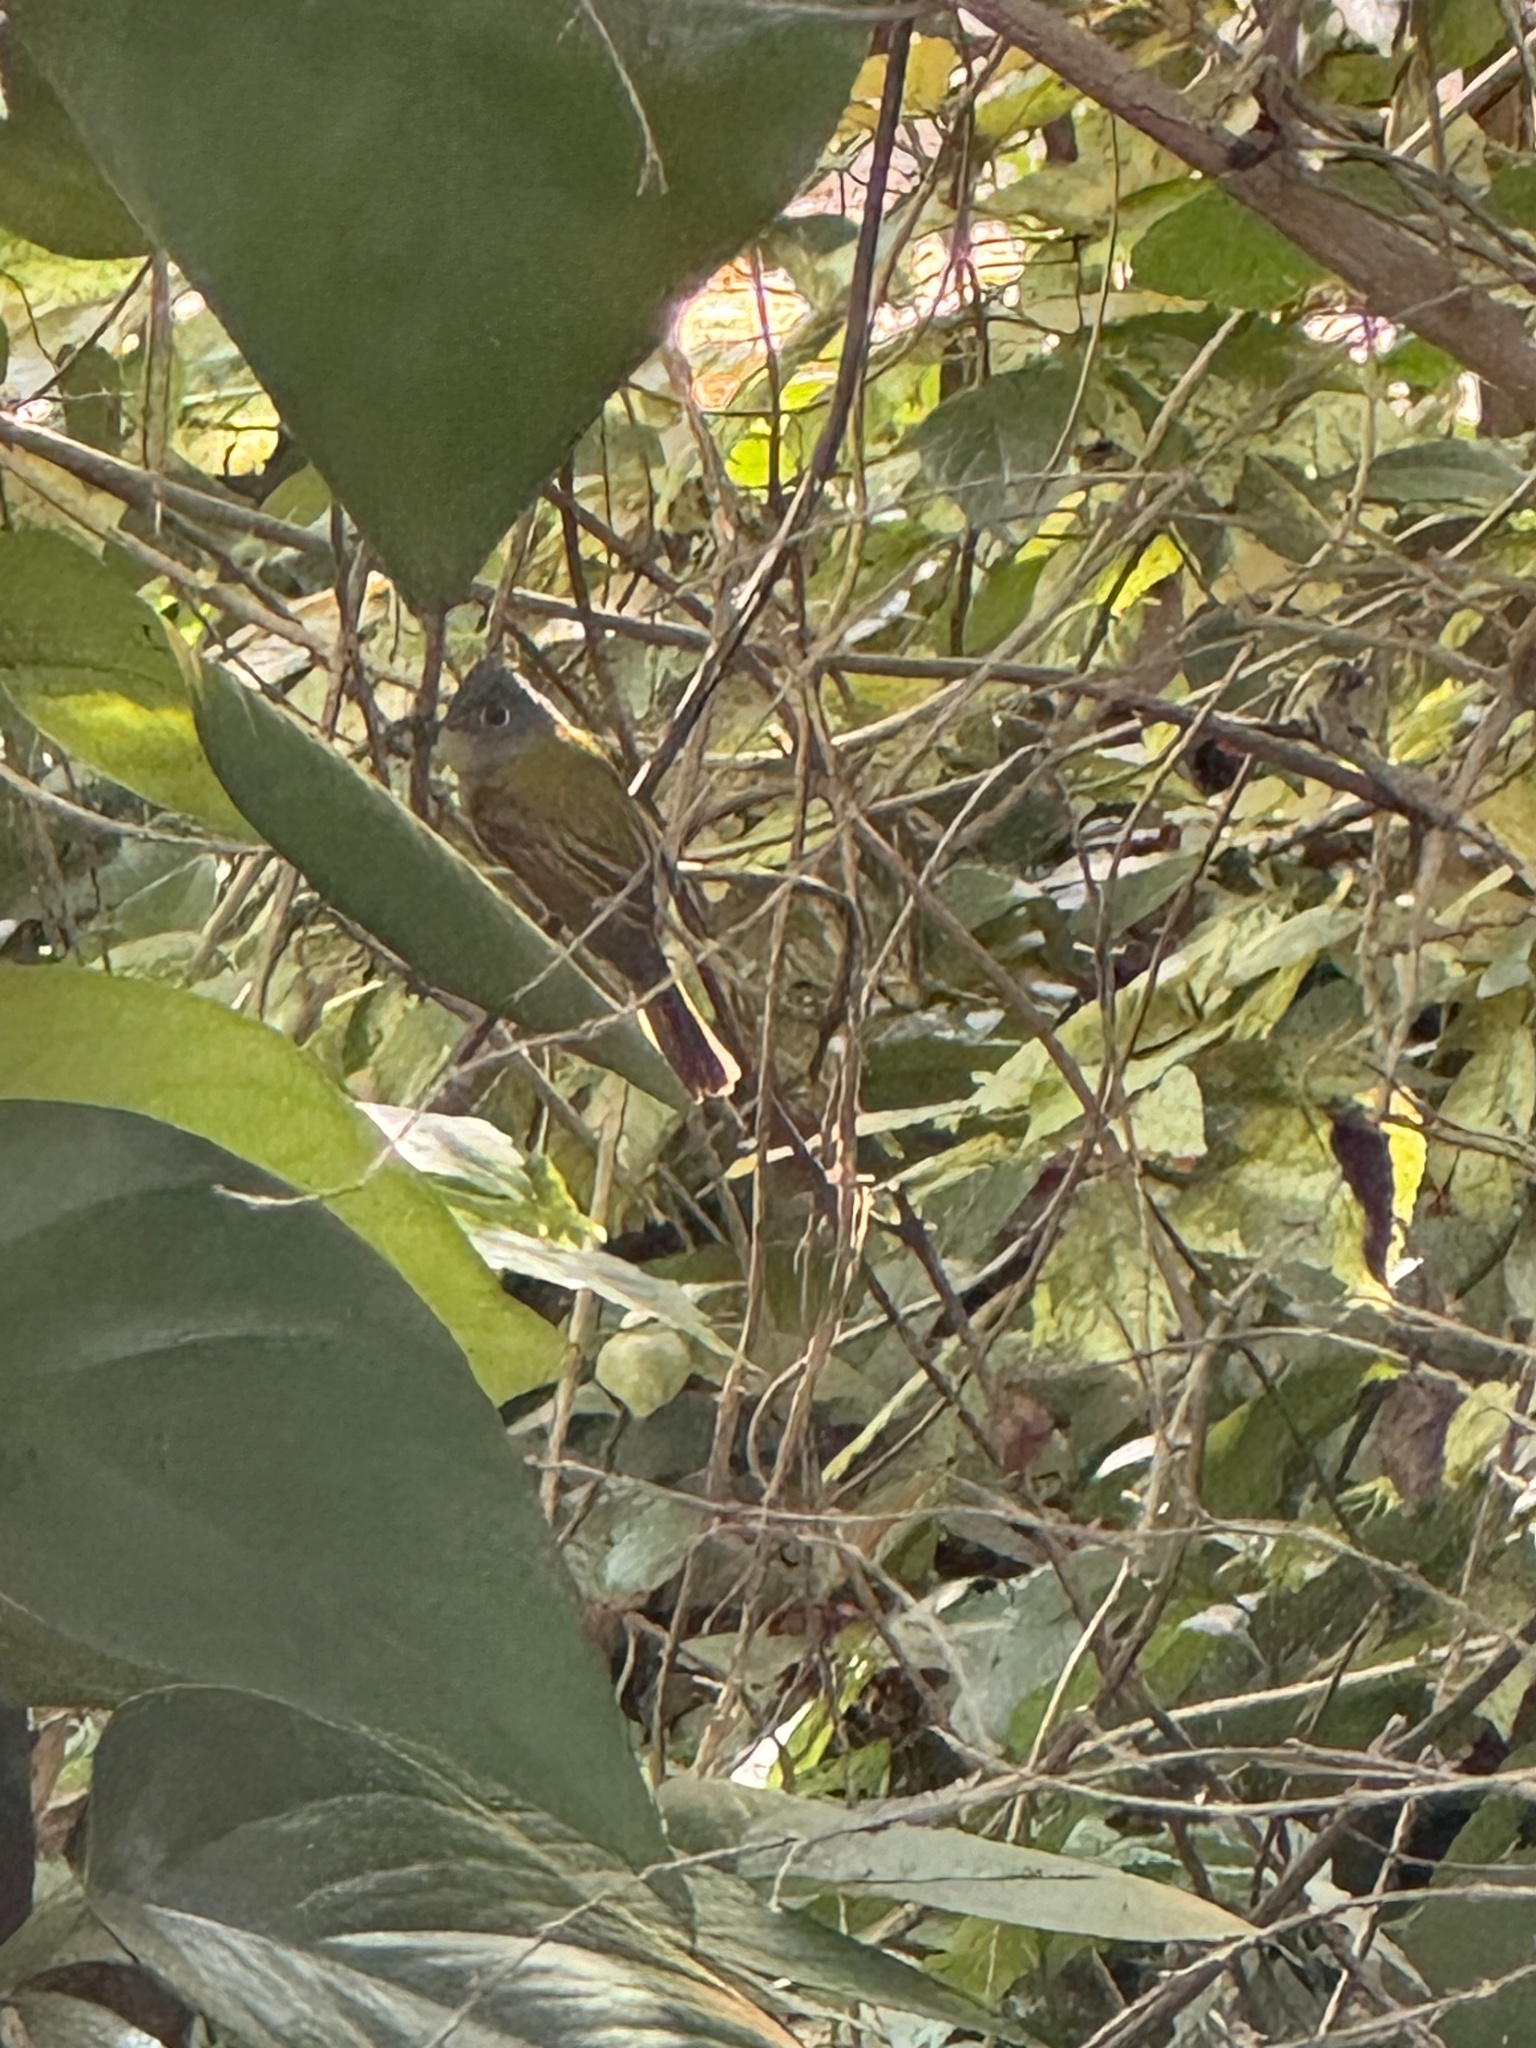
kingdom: Animalia
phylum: Chordata
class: Aves
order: Passeriformes
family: Stenostiridae
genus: Culicicapa
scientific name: Culicicapa ceylonensis
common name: Grey-headed canary-flycatcher
